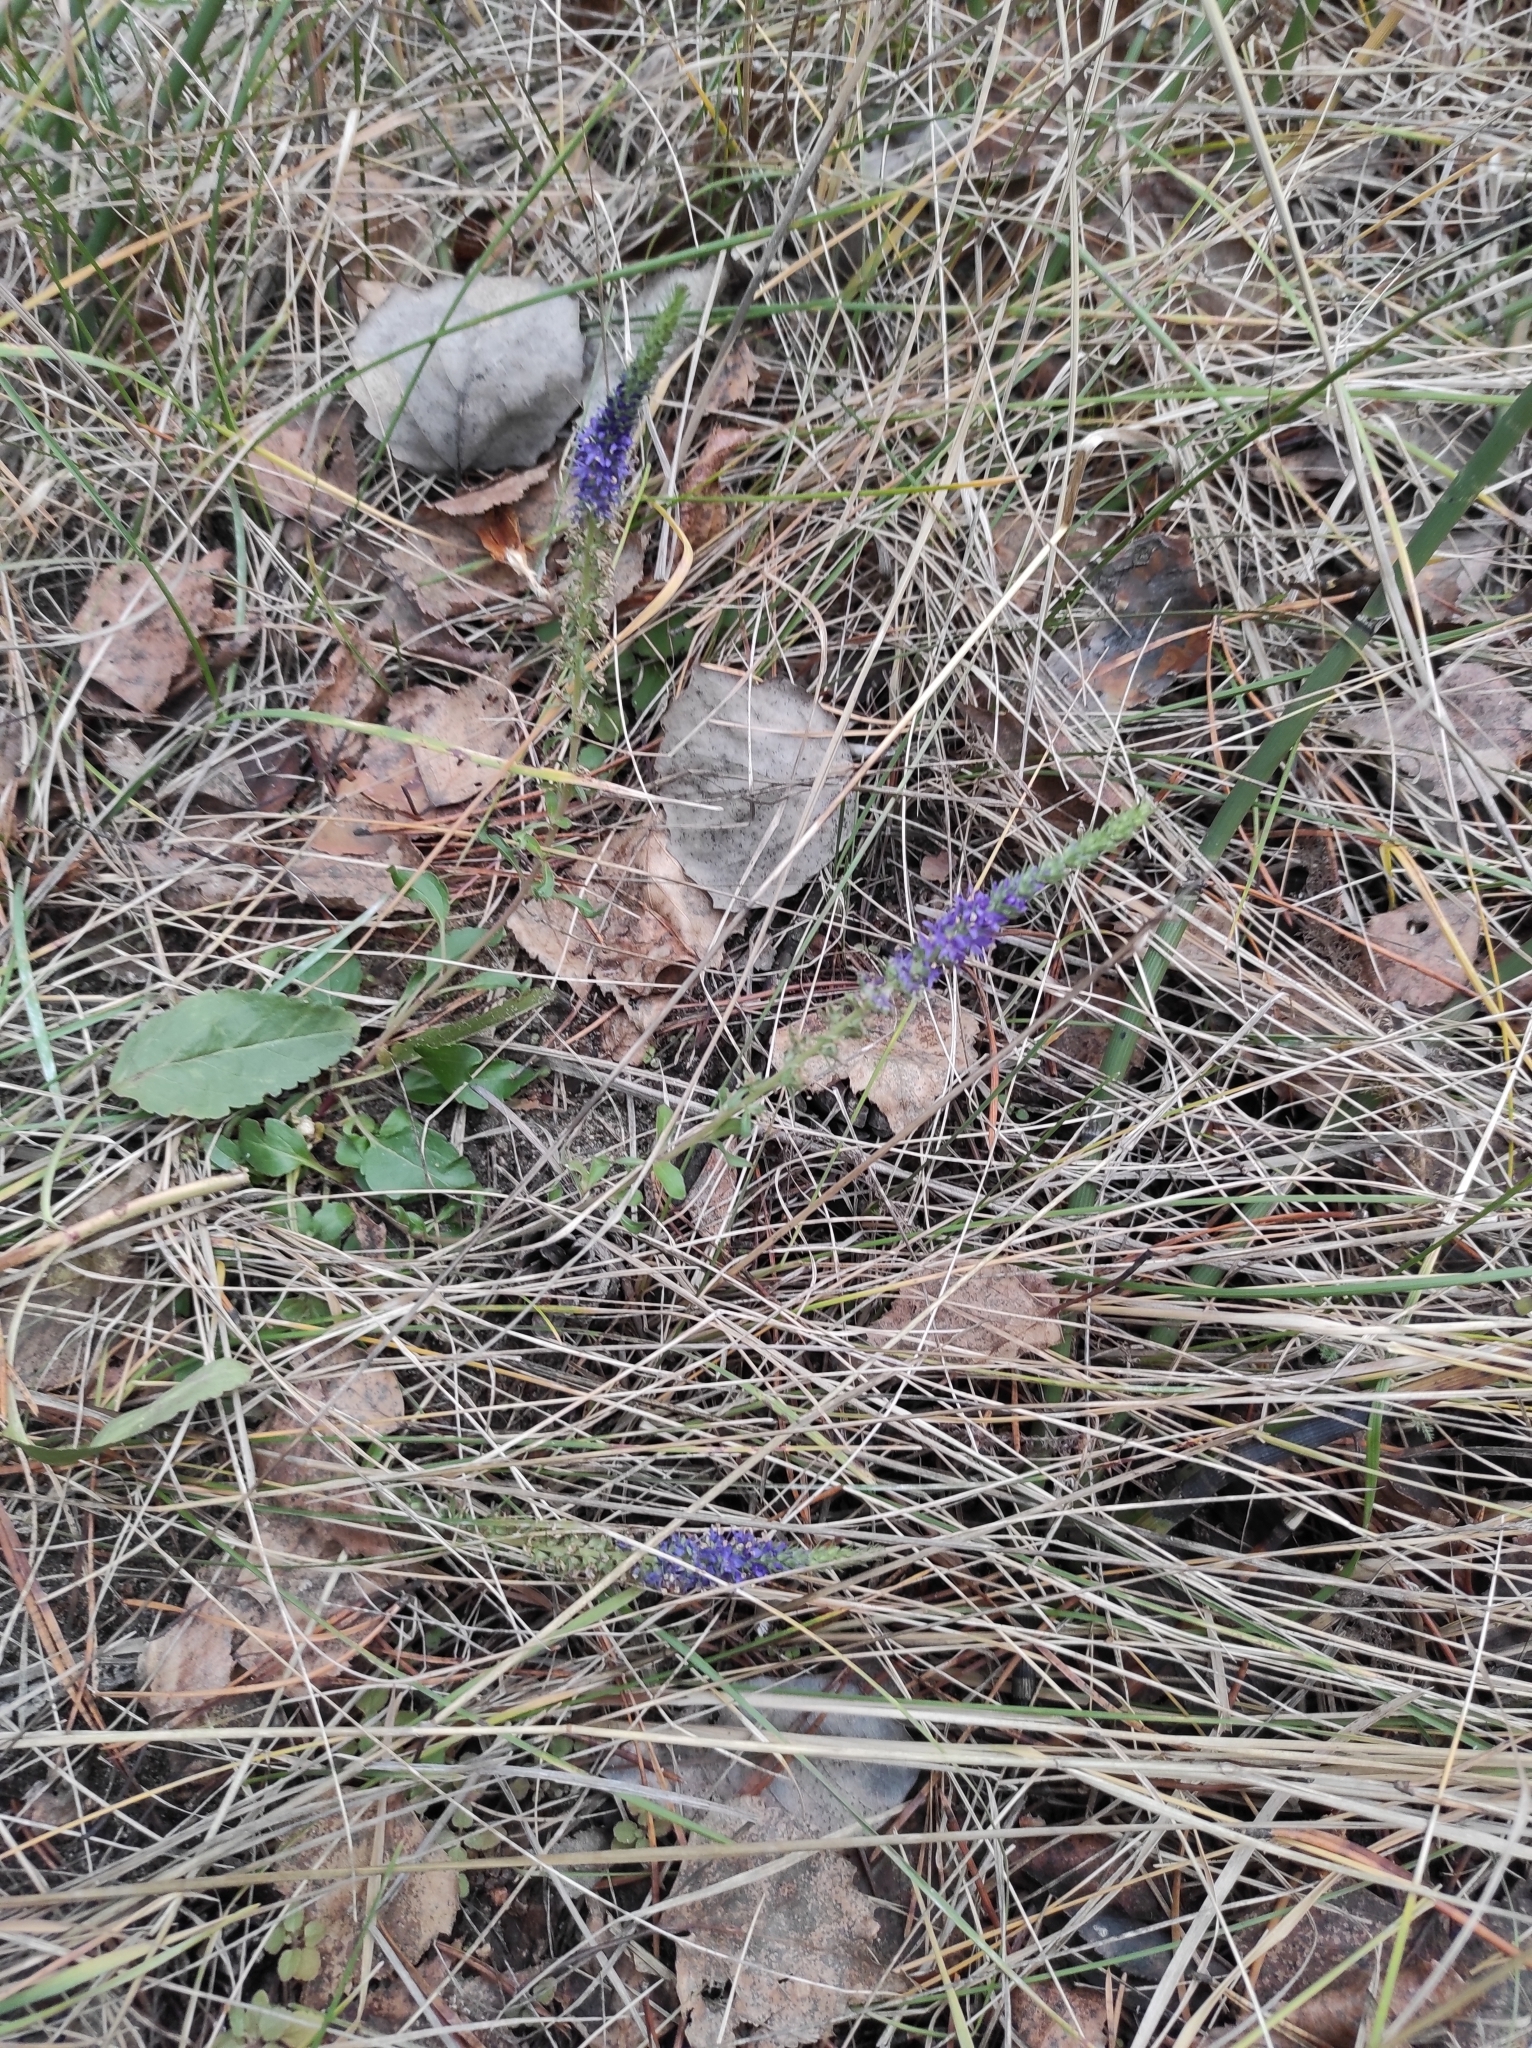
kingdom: Plantae
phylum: Tracheophyta
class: Magnoliopsida
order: Lamiales
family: Plantaginaceae
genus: Veronica
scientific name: Veronica spicata
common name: Spiked speedwell
